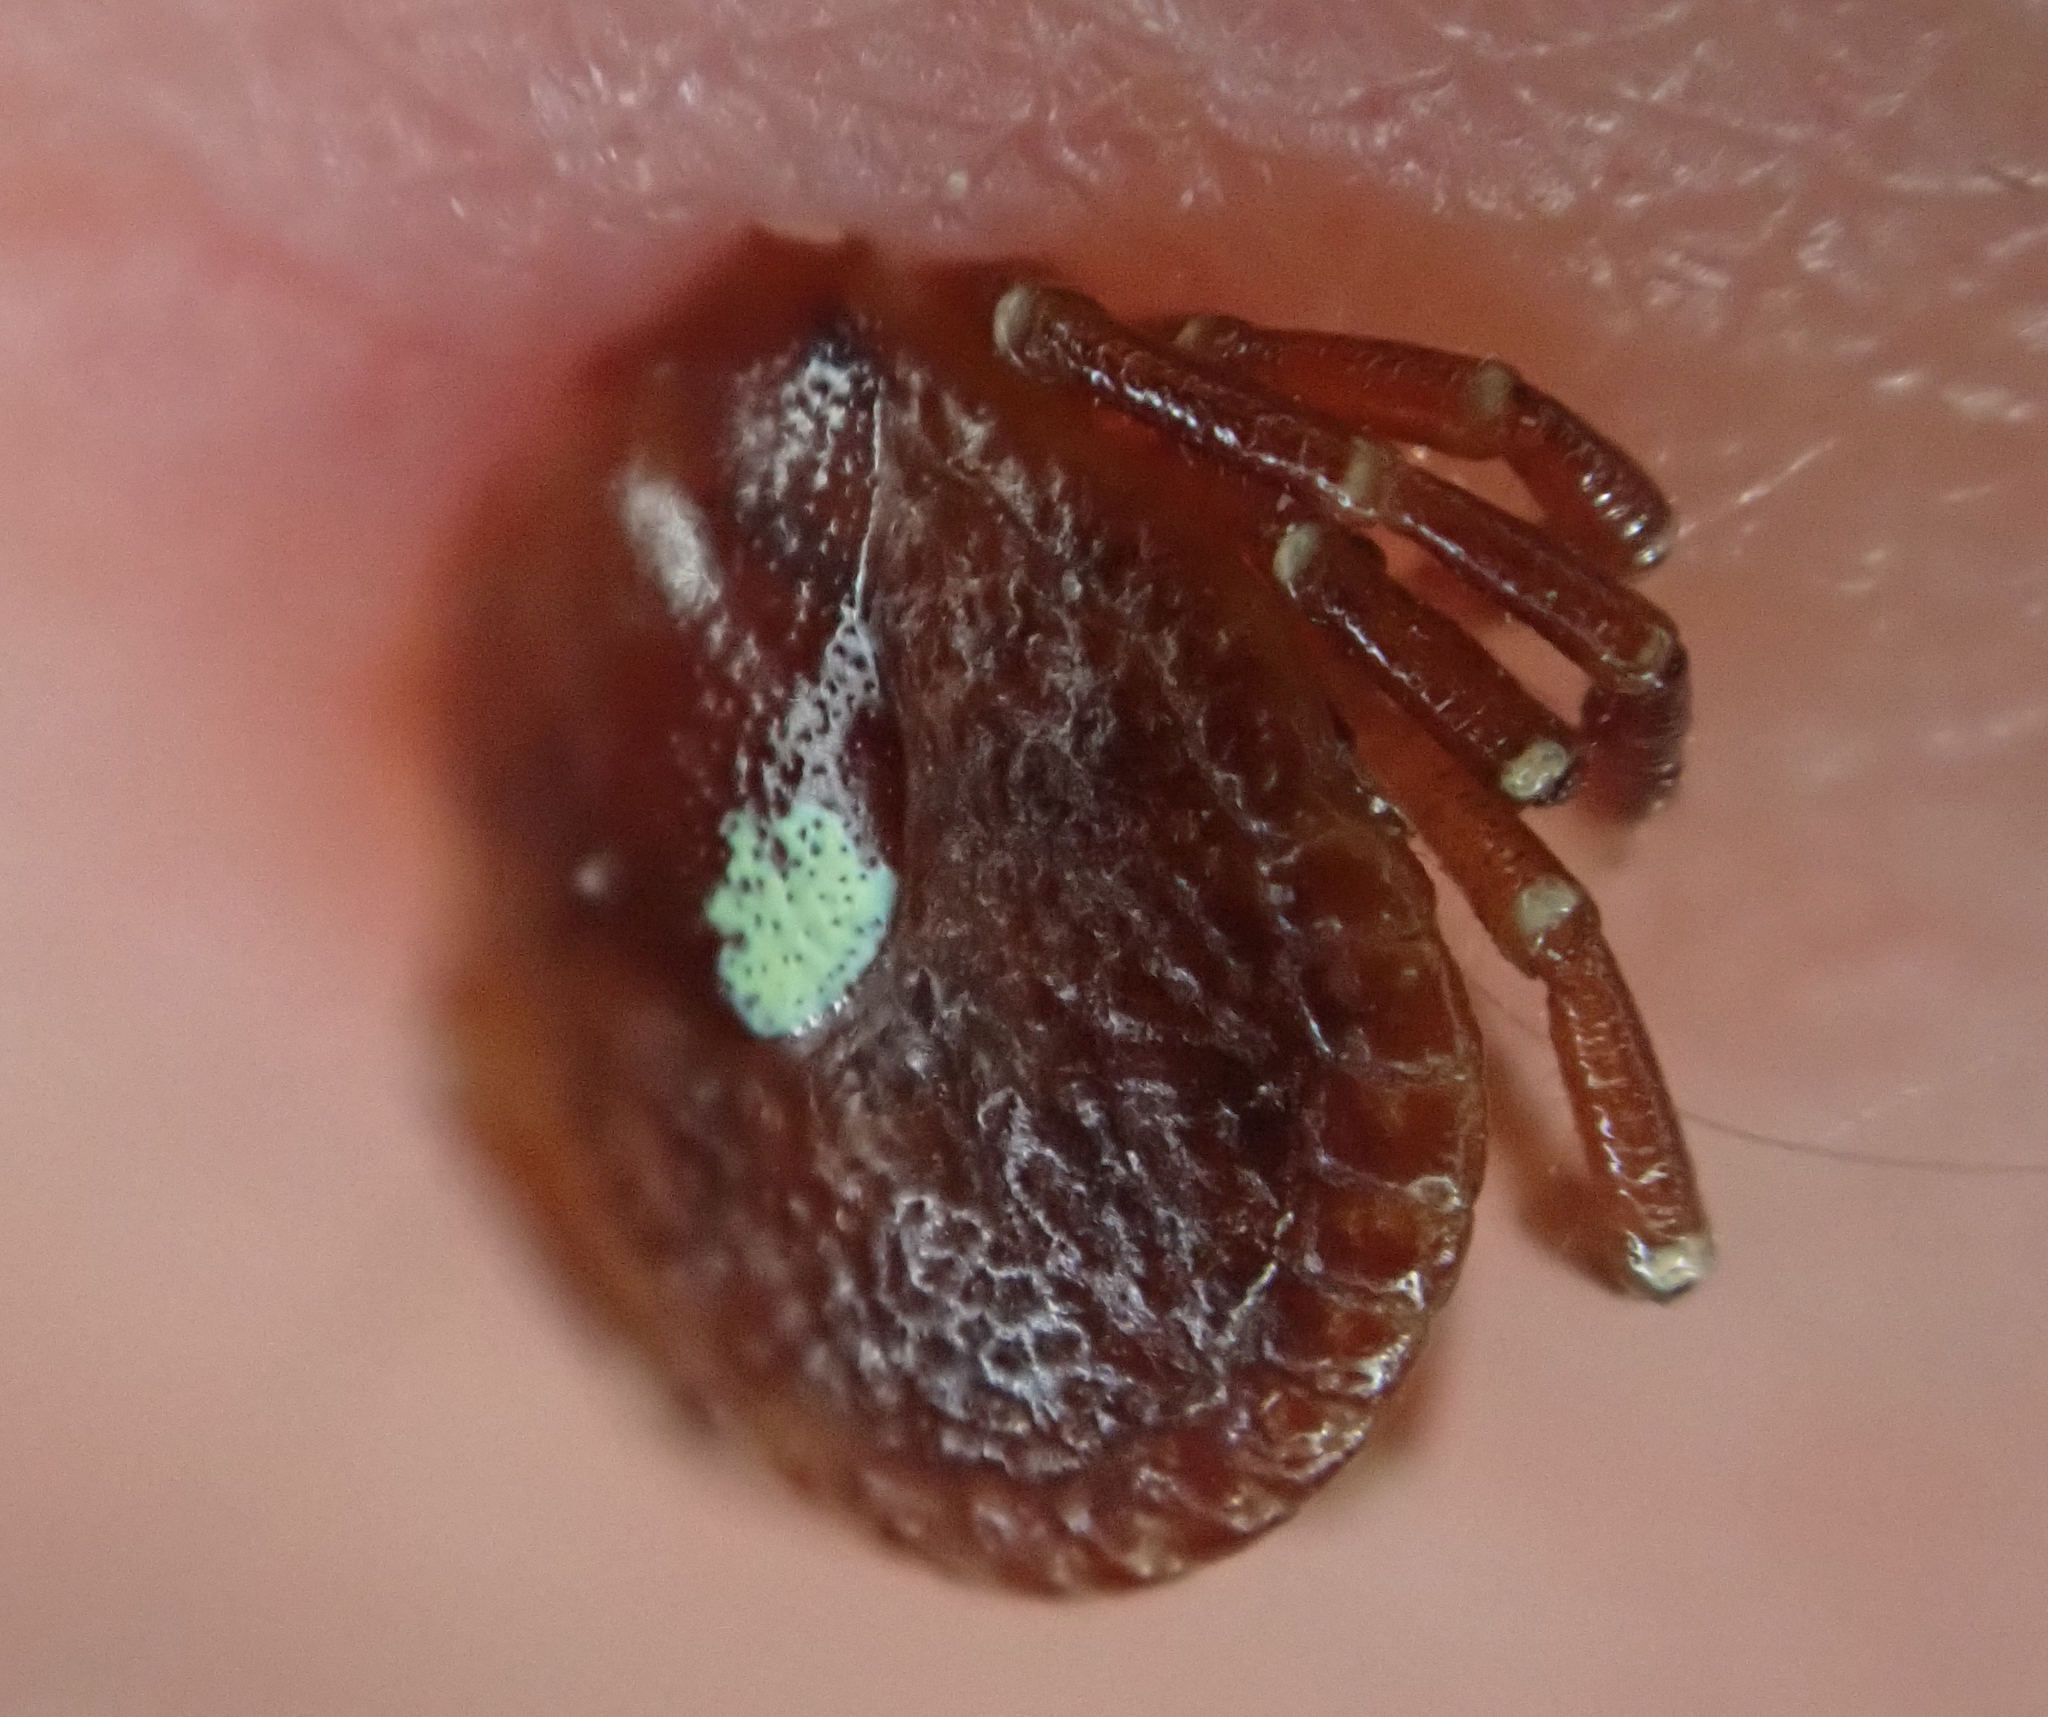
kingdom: Animalia
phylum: Arthropoda
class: Arachnida
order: Ixodida
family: Ixodidae
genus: Amblyomma
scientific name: Amblyomma americanum
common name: Lone star tick
